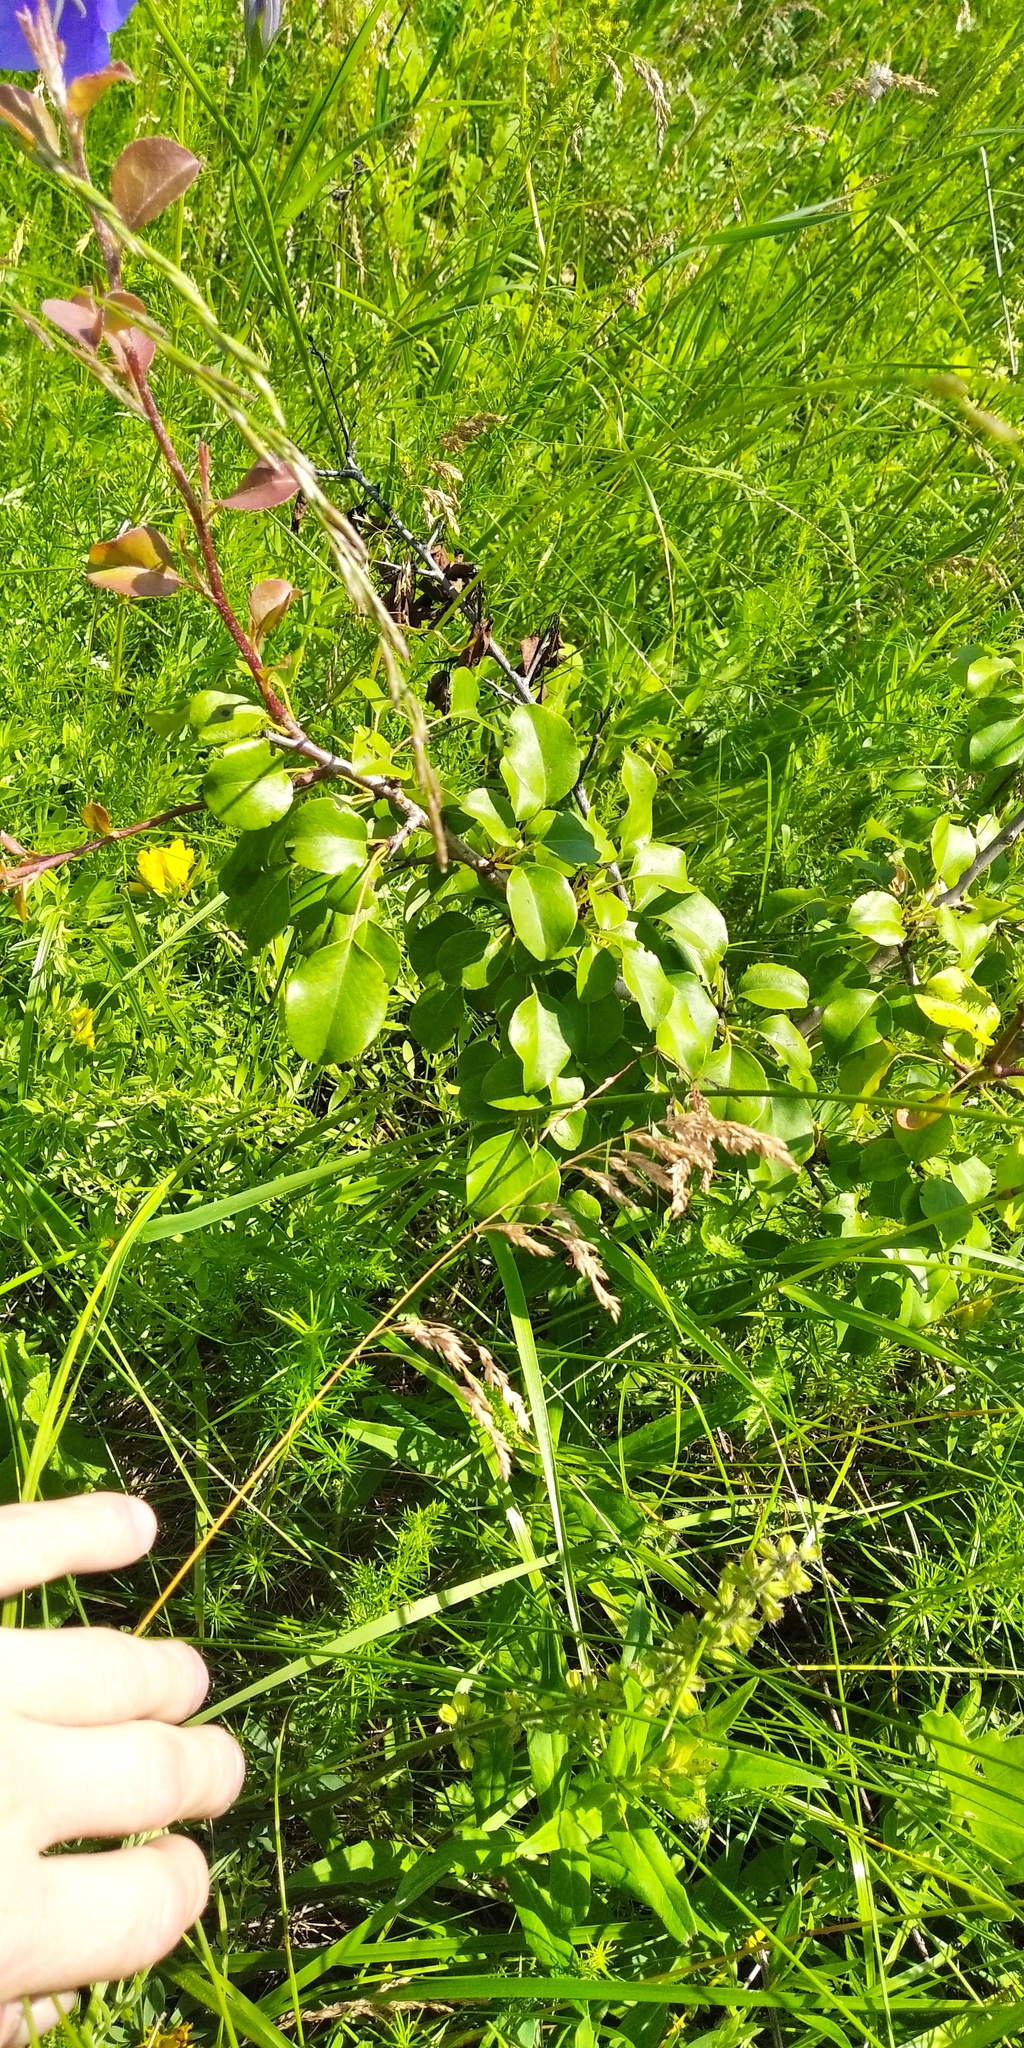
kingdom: Plantae
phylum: Tracheophyta
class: Magnoliopsida
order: Rosales
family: Rosaceae
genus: Pyrus
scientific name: Pyrus communis
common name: Pear
